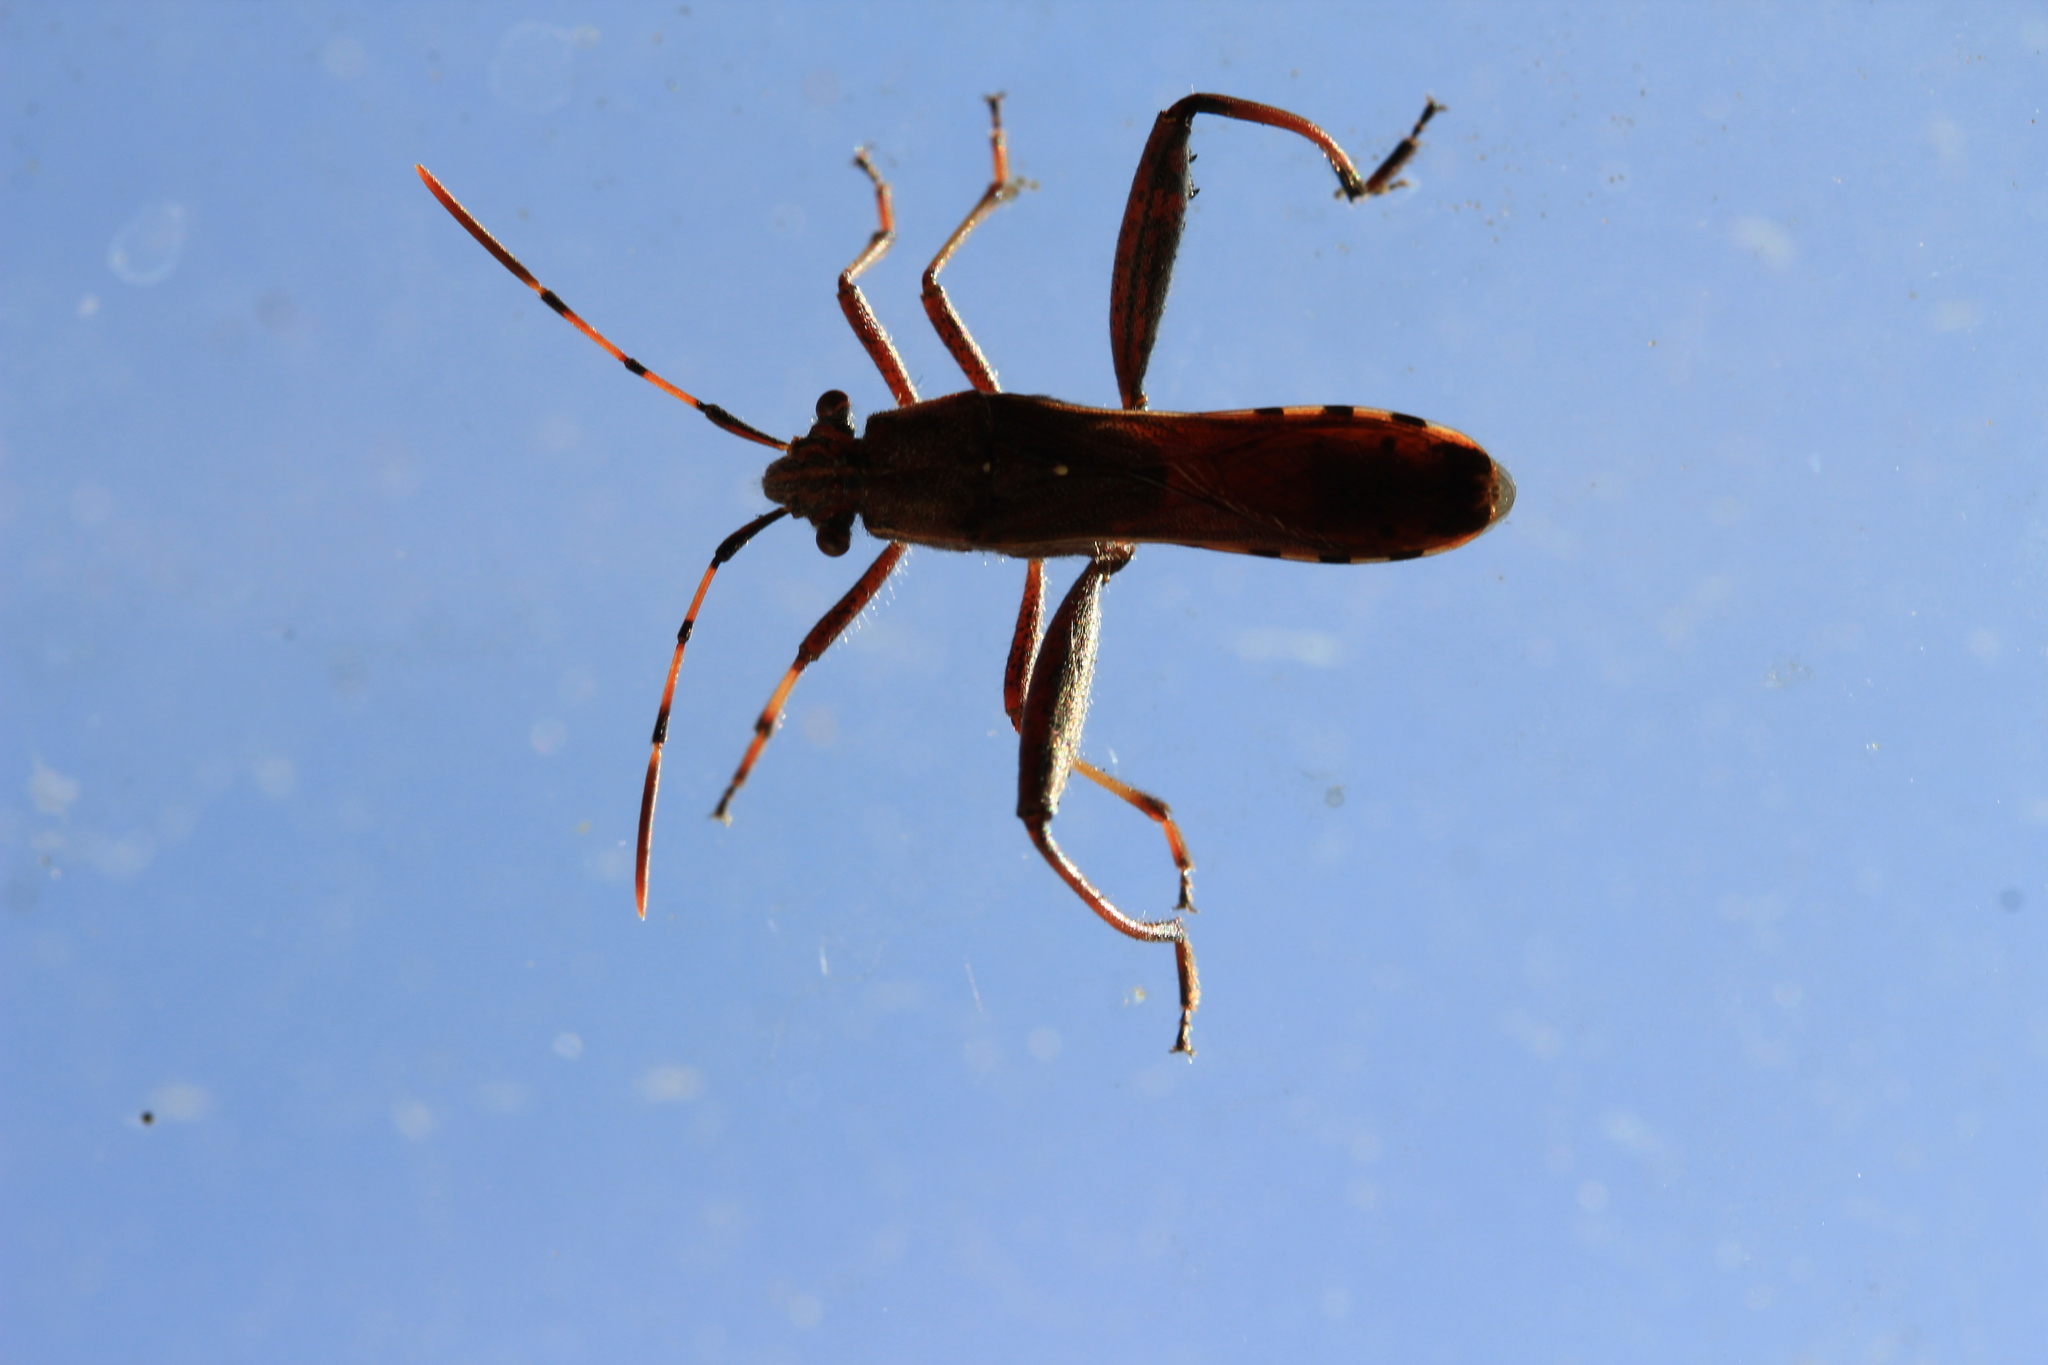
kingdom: Animalia
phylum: Arthropoda
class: Insecta
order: Hemiptera
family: Alydidae
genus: Camptopus
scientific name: Camptopus lateralis
